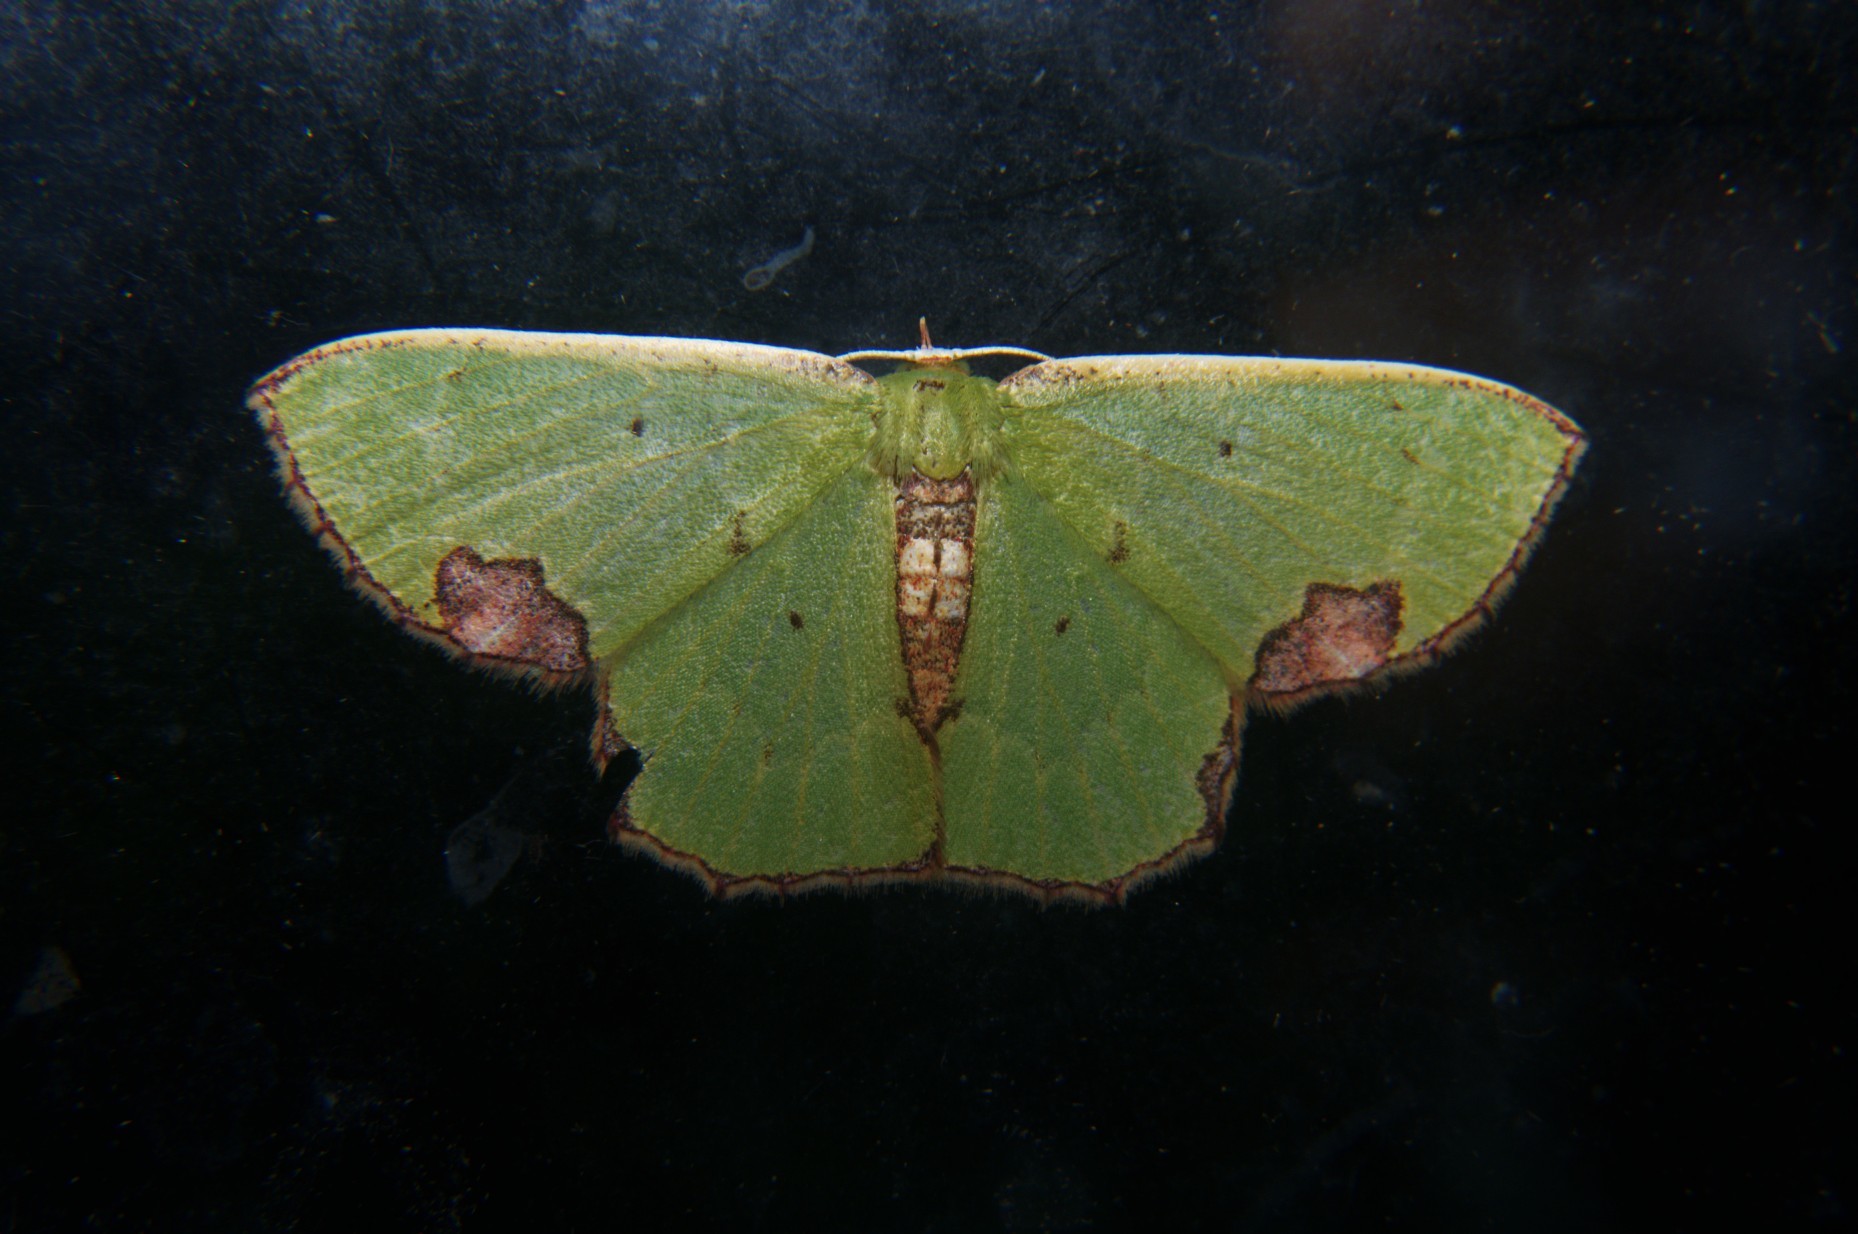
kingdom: Animalia
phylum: Arthropoda
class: Insecta
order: Lepidoptera
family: Geometridae
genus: Spaniocentra
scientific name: Spaniocentra pannosa
